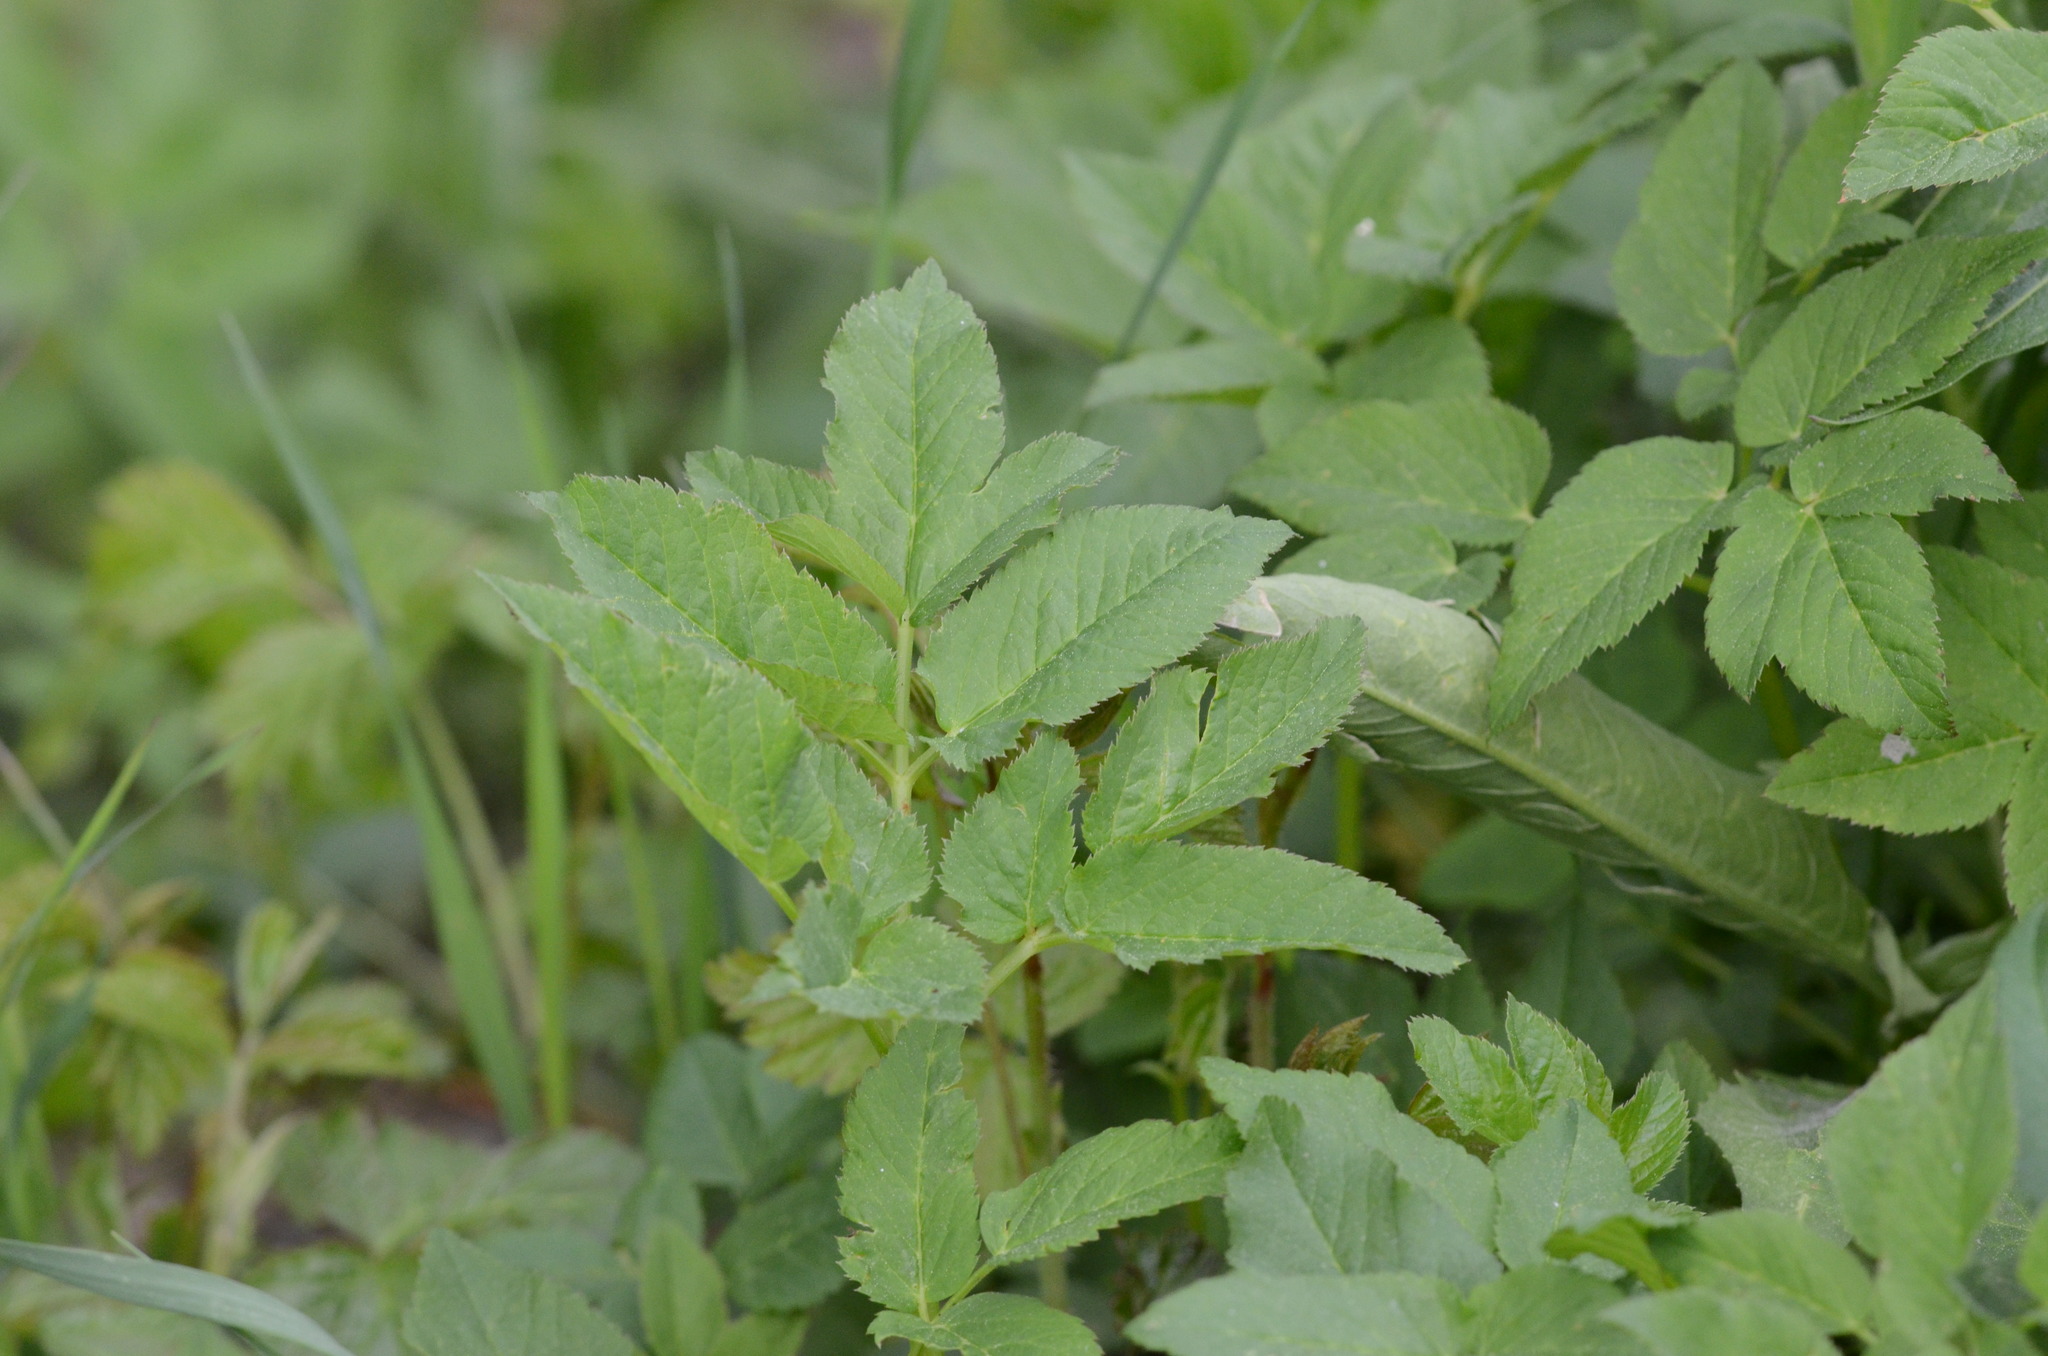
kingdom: Plantae
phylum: Tracheophyta
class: Magnoliopsida
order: Apiales
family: Apiaceae
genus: Aegopodium
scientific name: Aegopodium podagraria
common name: Ground-elder
